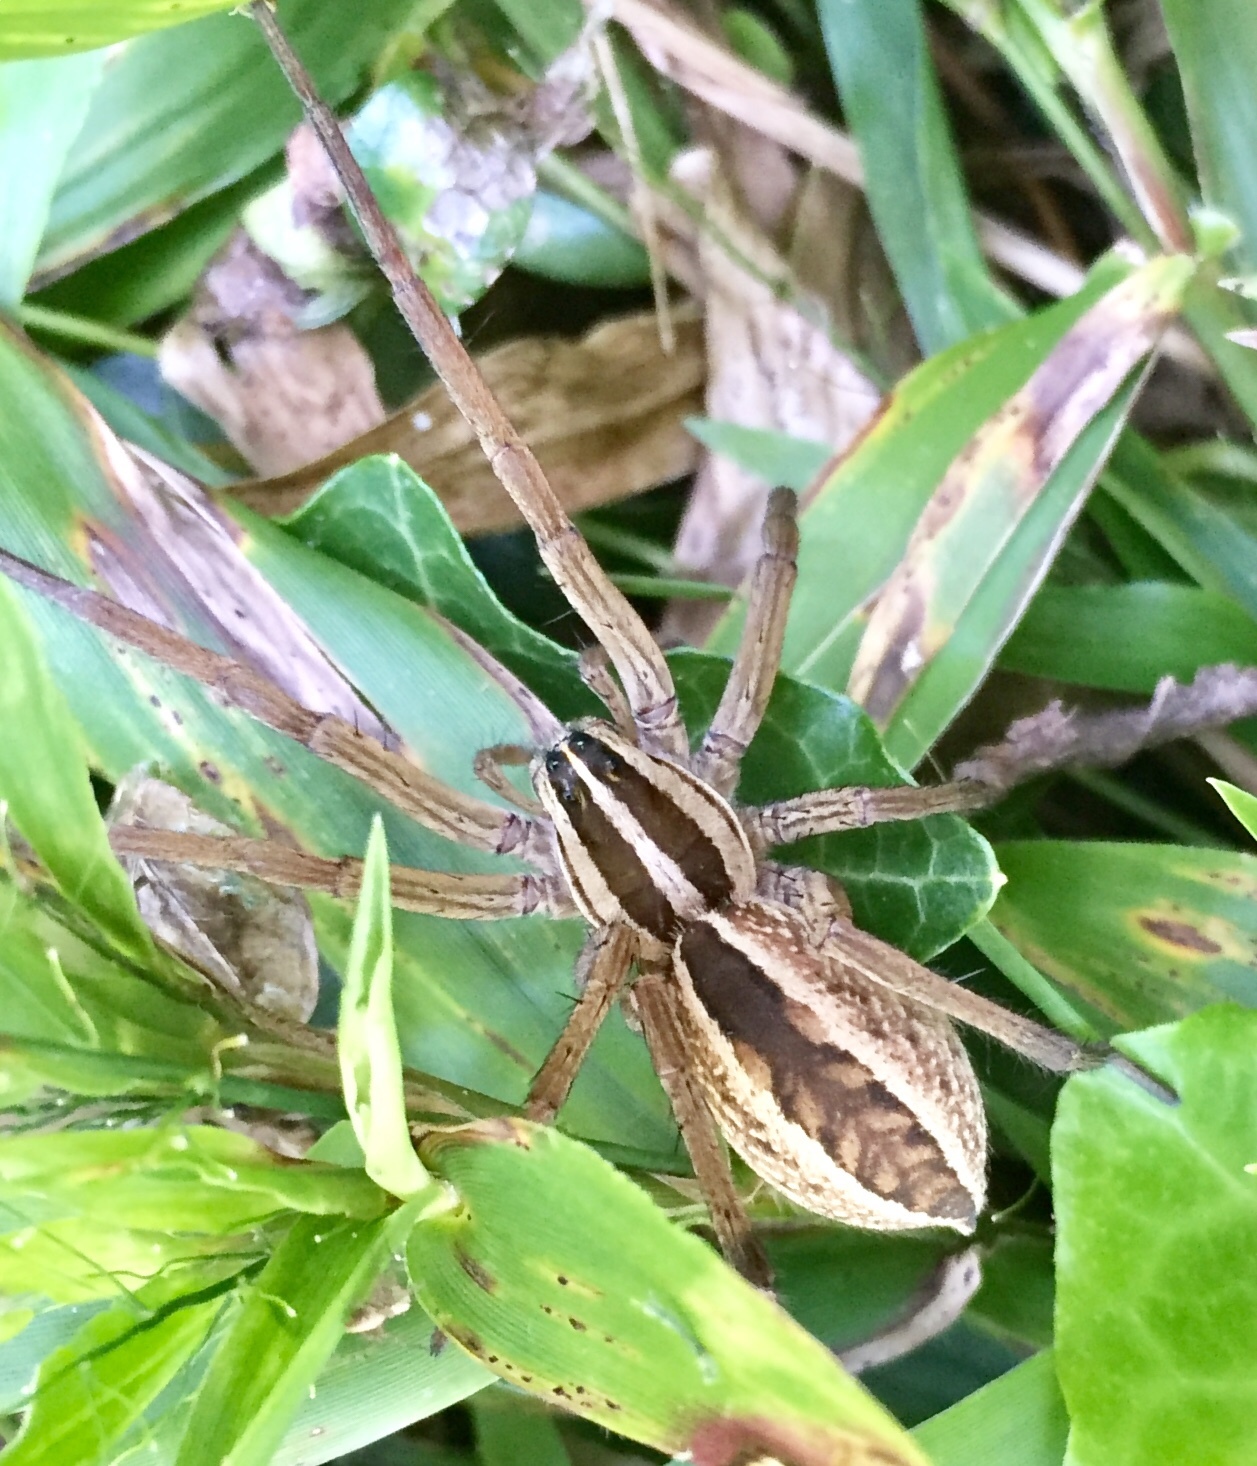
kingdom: Animalia
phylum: Arthropoda
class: Arachnida
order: Araneae
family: Lycosidae
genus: Rabidosa
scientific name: Rabidosa rabida
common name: Rabid wolf spider
